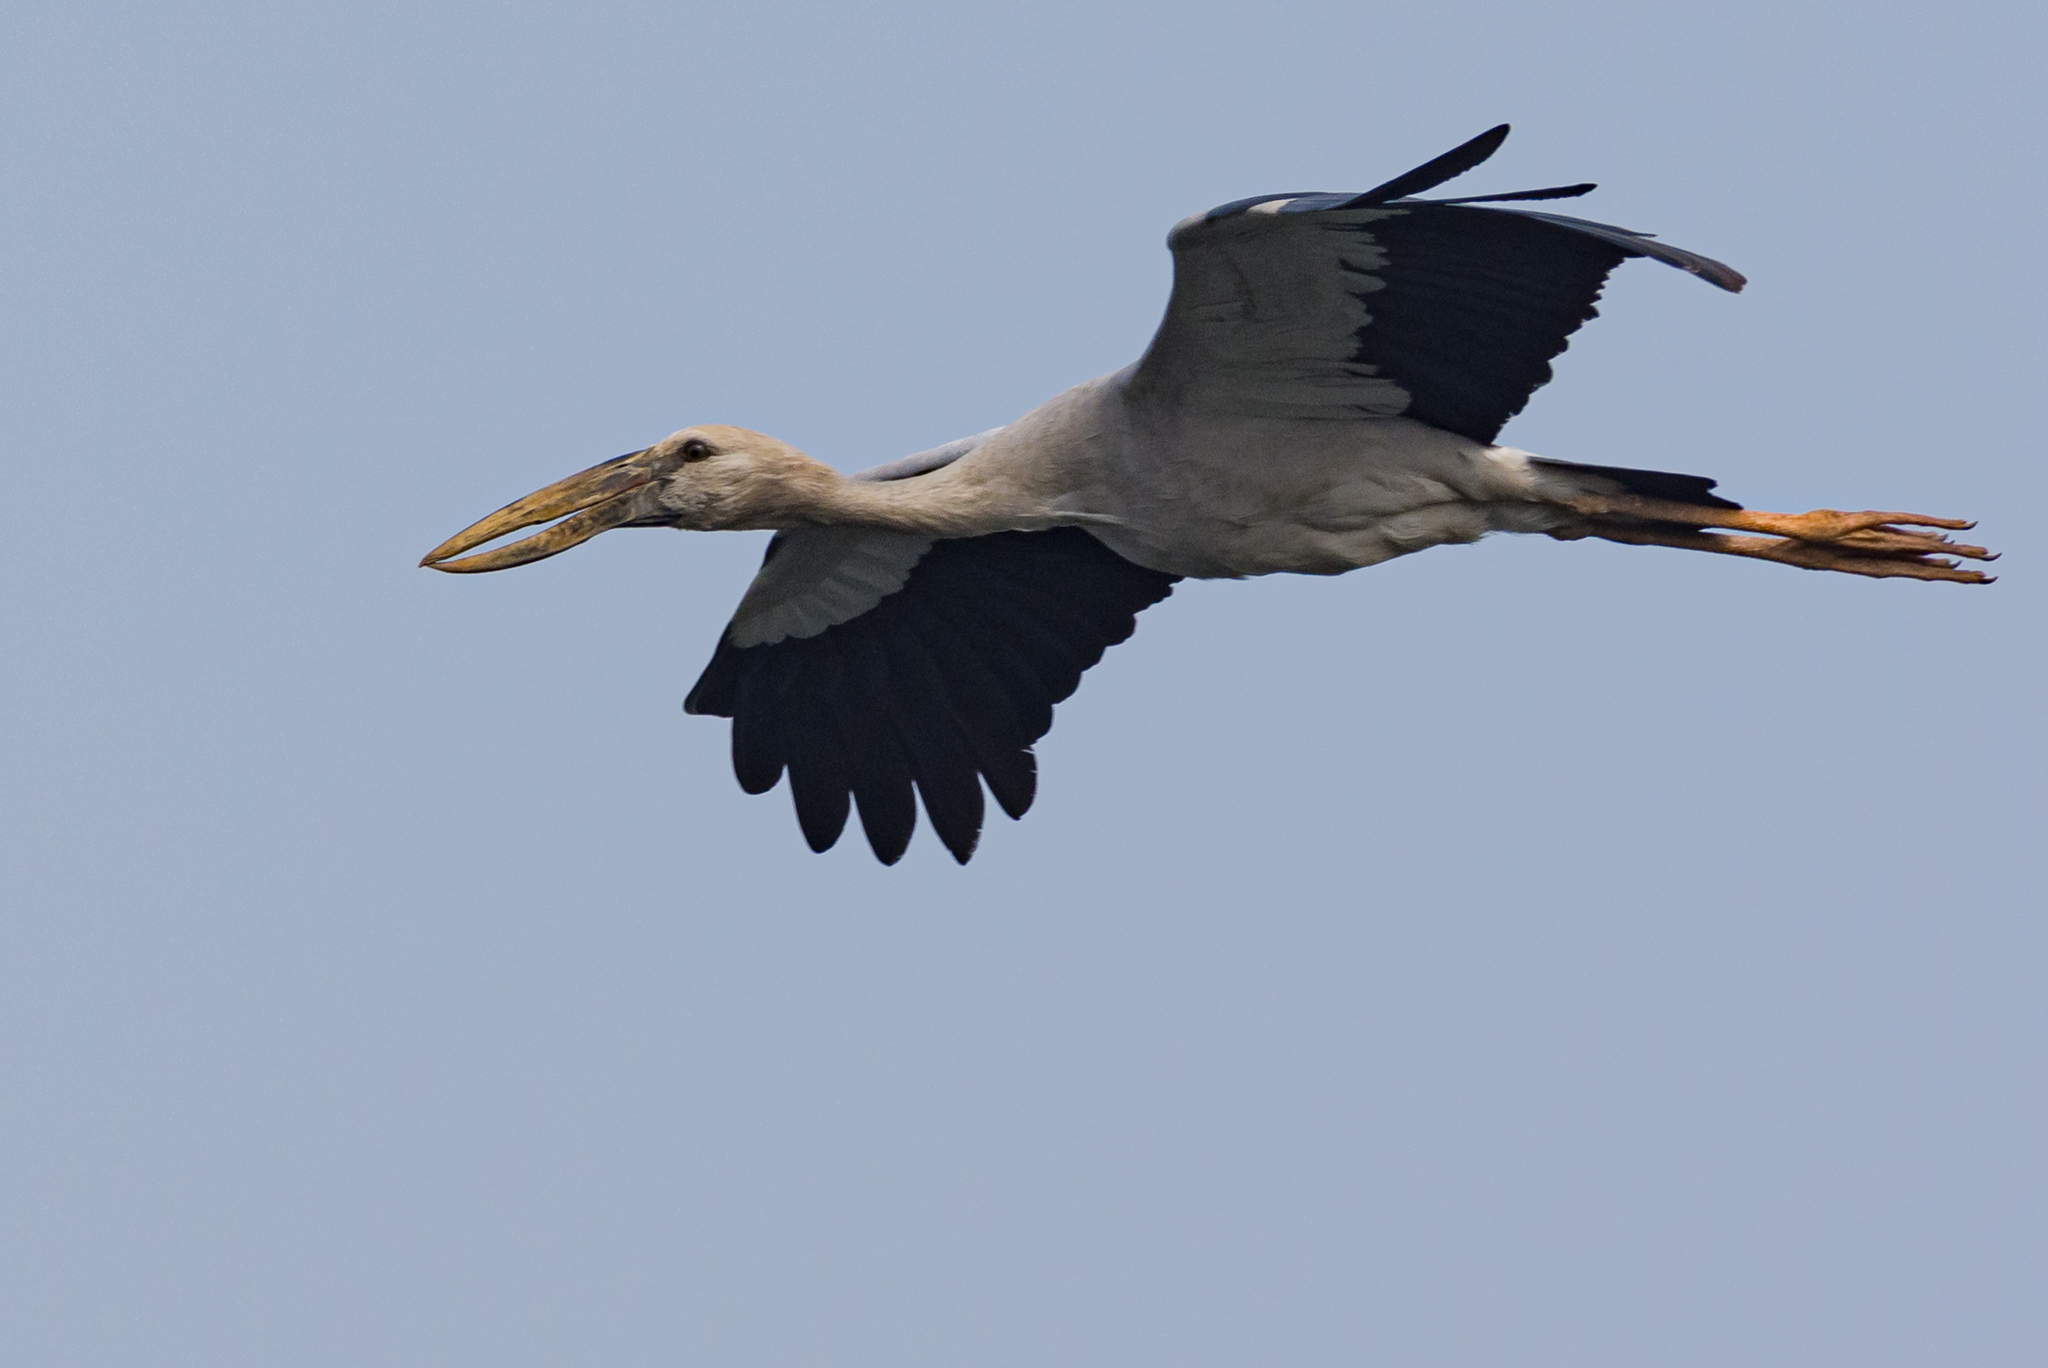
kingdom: Animalia
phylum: Chordata
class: Aves
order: Ciconiiformes
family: Ciconiidae
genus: Anastomus
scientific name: Anastomus oscitans
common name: Asian openbill
